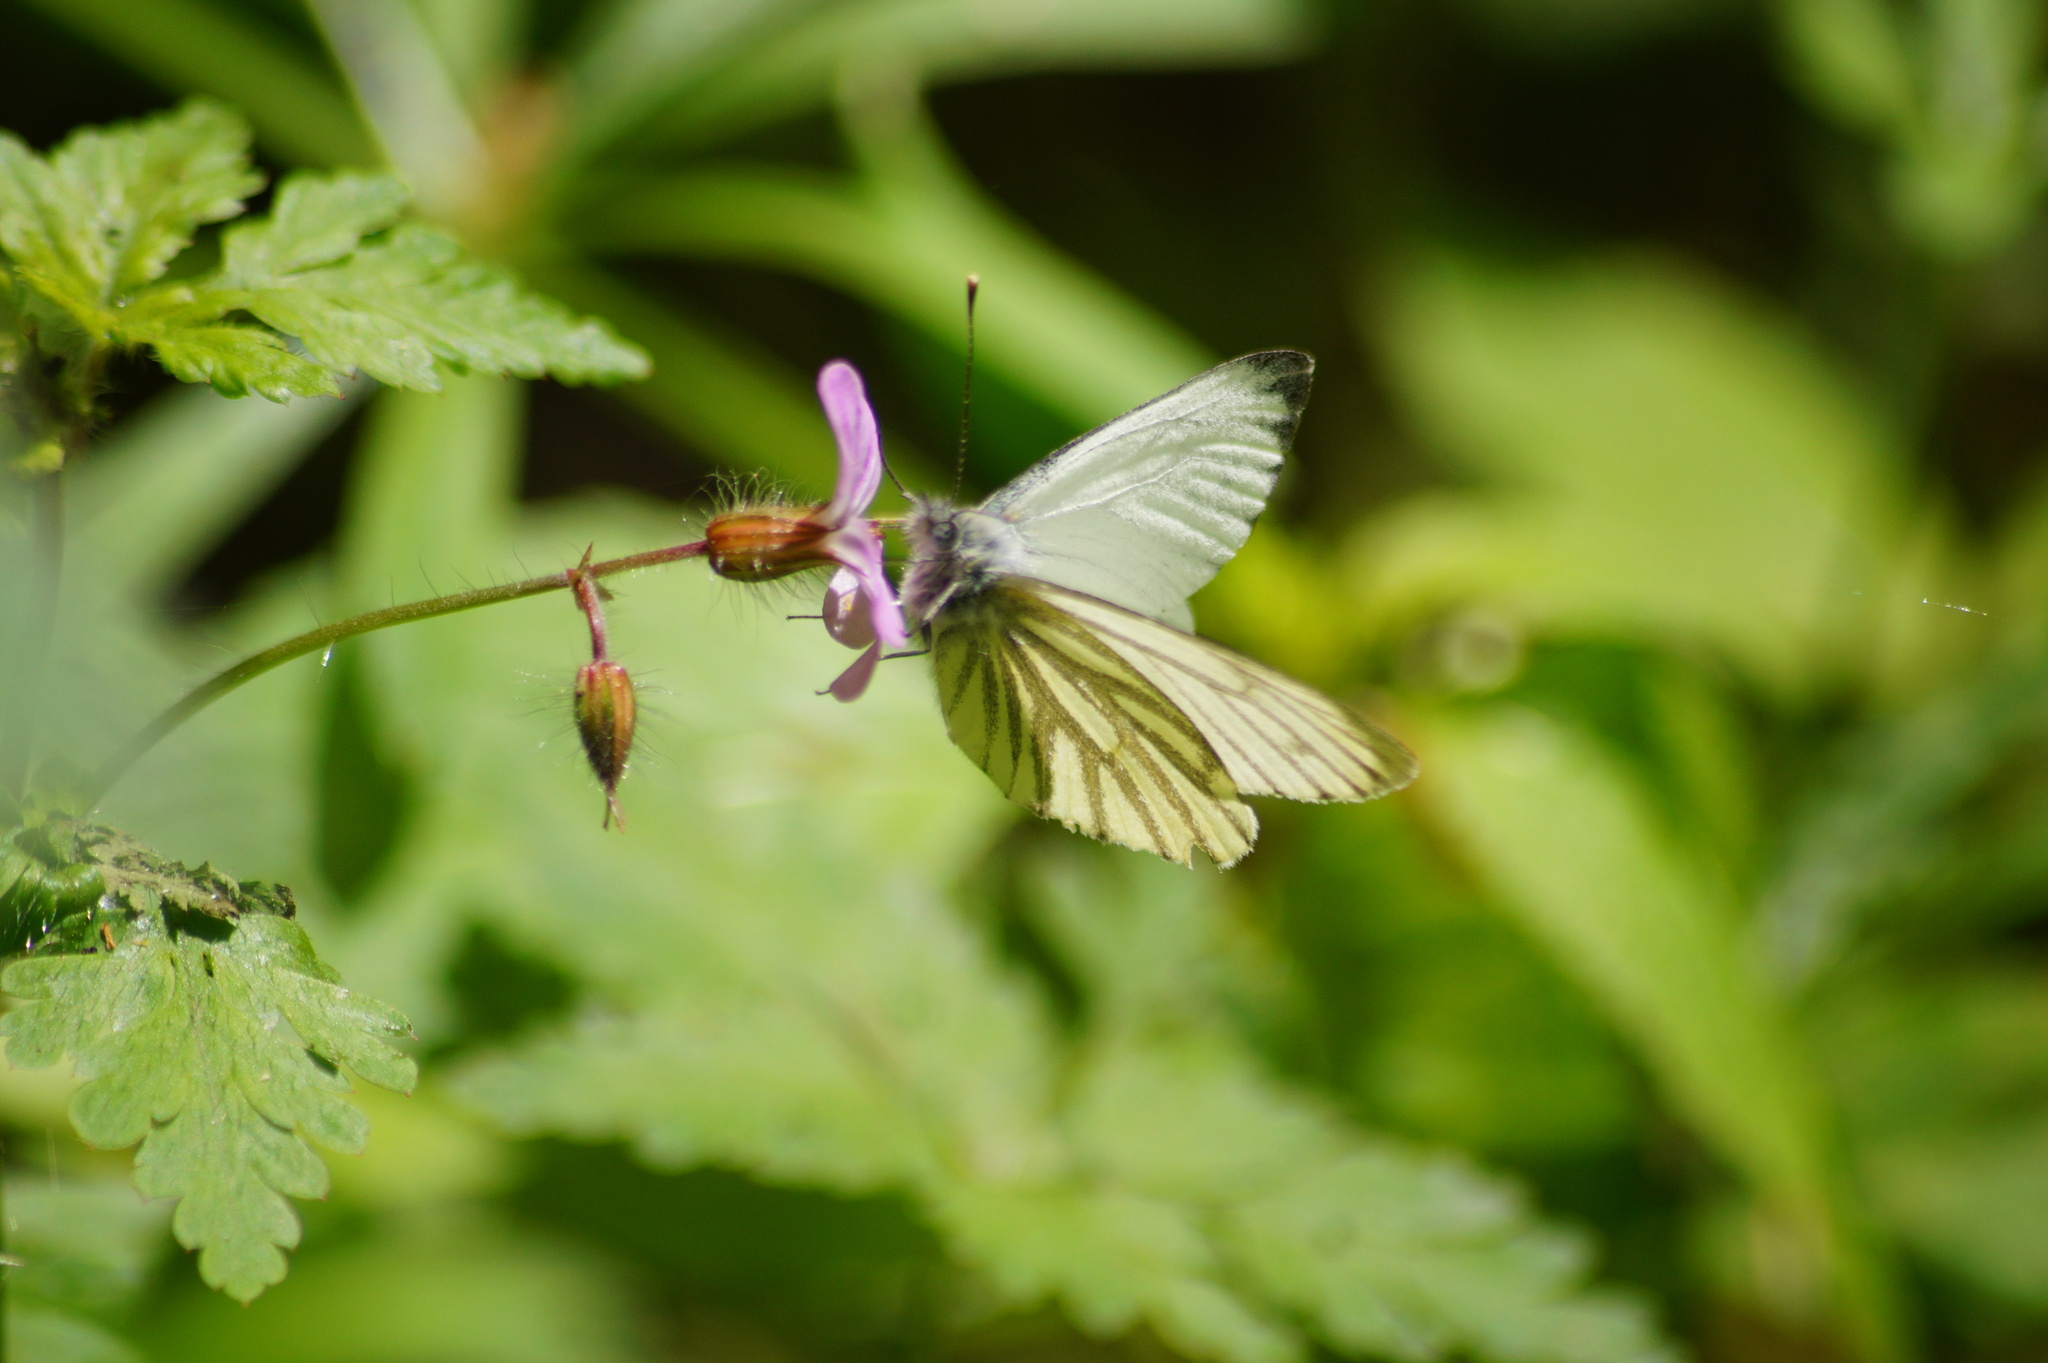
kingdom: Animalia
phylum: Arthropoda
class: Insecta
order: Lepidoptera
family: Pieridae
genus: Pieris
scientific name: Pieris napi
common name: Green-veined white
